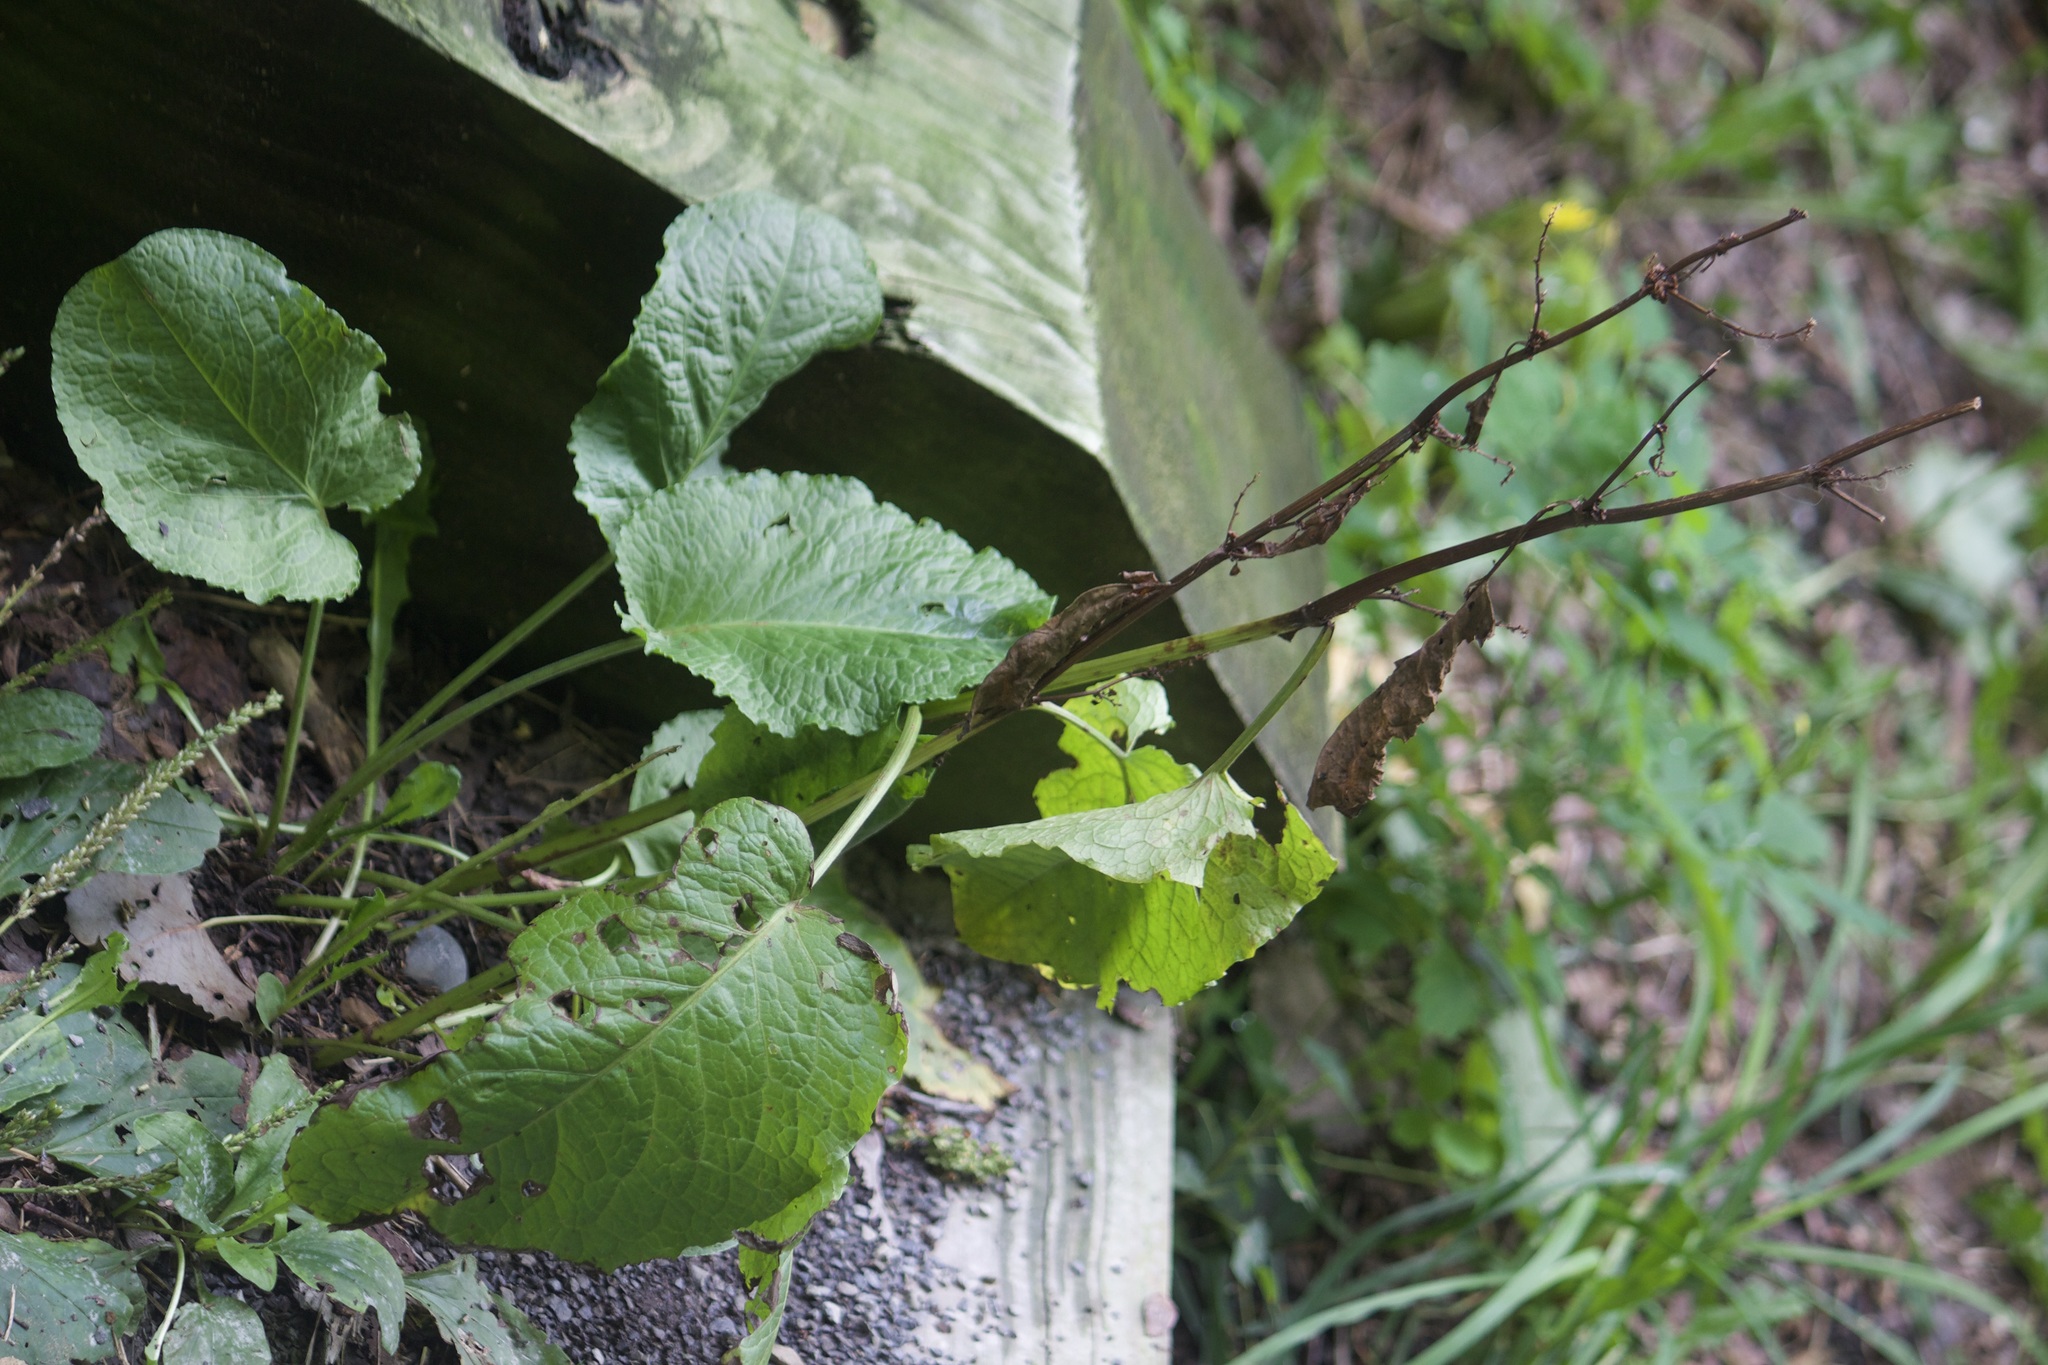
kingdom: Plantae
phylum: Tracheophyta
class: Magnoliopsida
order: Caryophyllales
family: Polygonaceae
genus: Rumex
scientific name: Rumex obtusifolius
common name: Bitter dock
